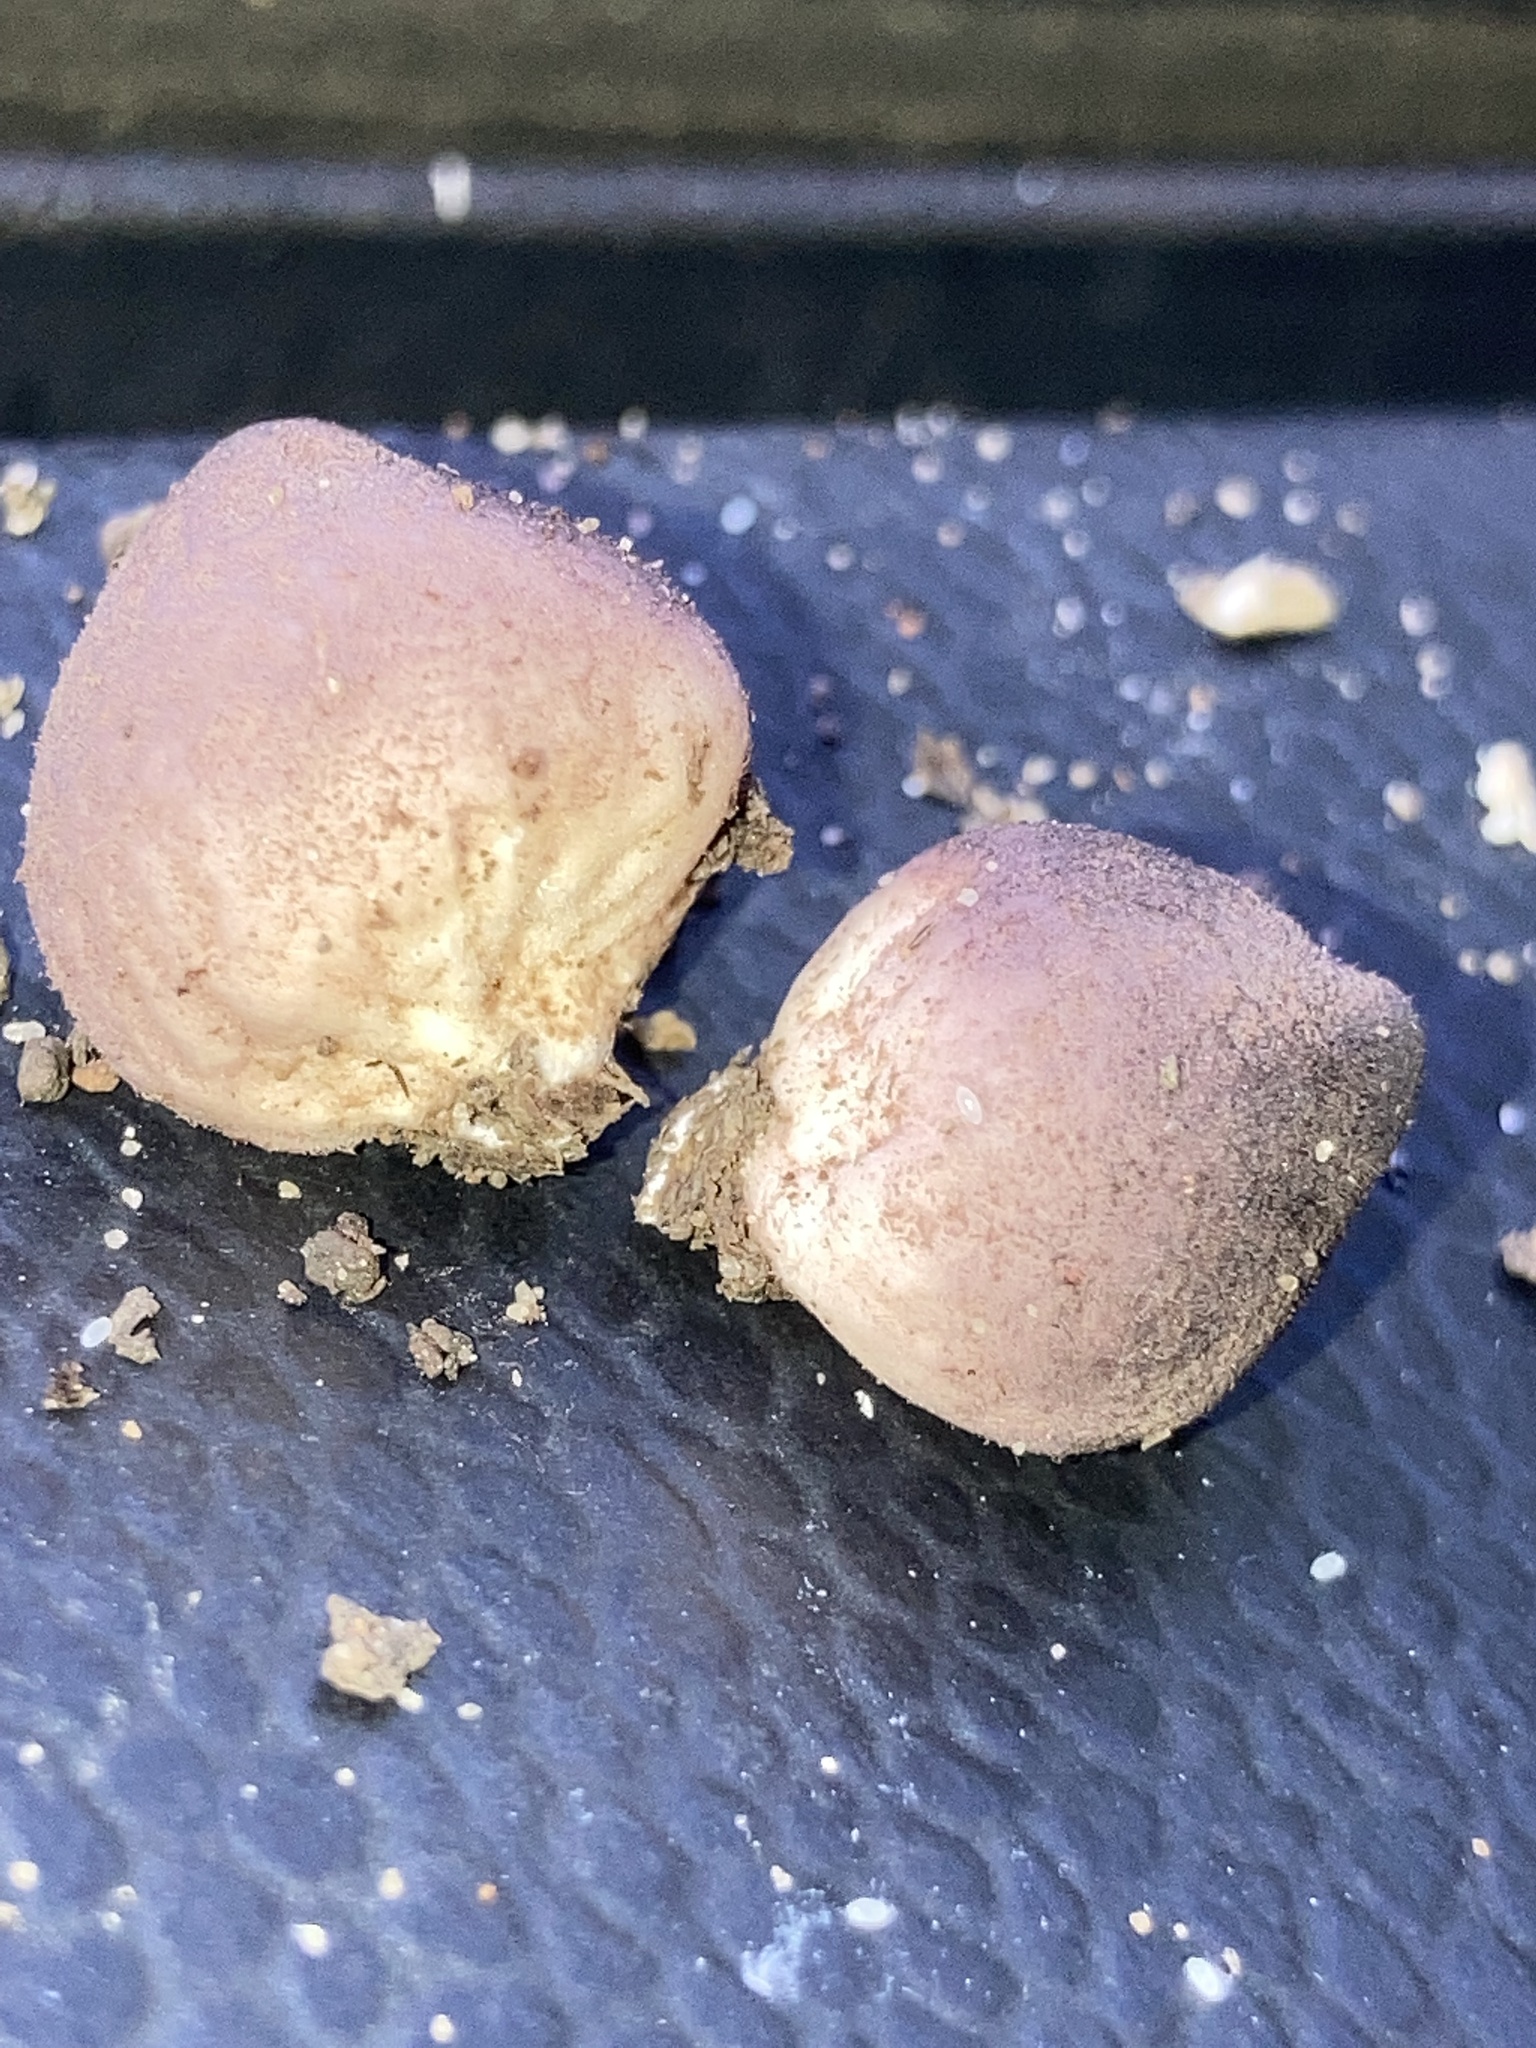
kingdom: Fungi
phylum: Basidiomycota
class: Agaricomycetes
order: Agaricales
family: Lycoperdaceae
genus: Lycoperdon
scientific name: Lycoperdon subincarnatum
